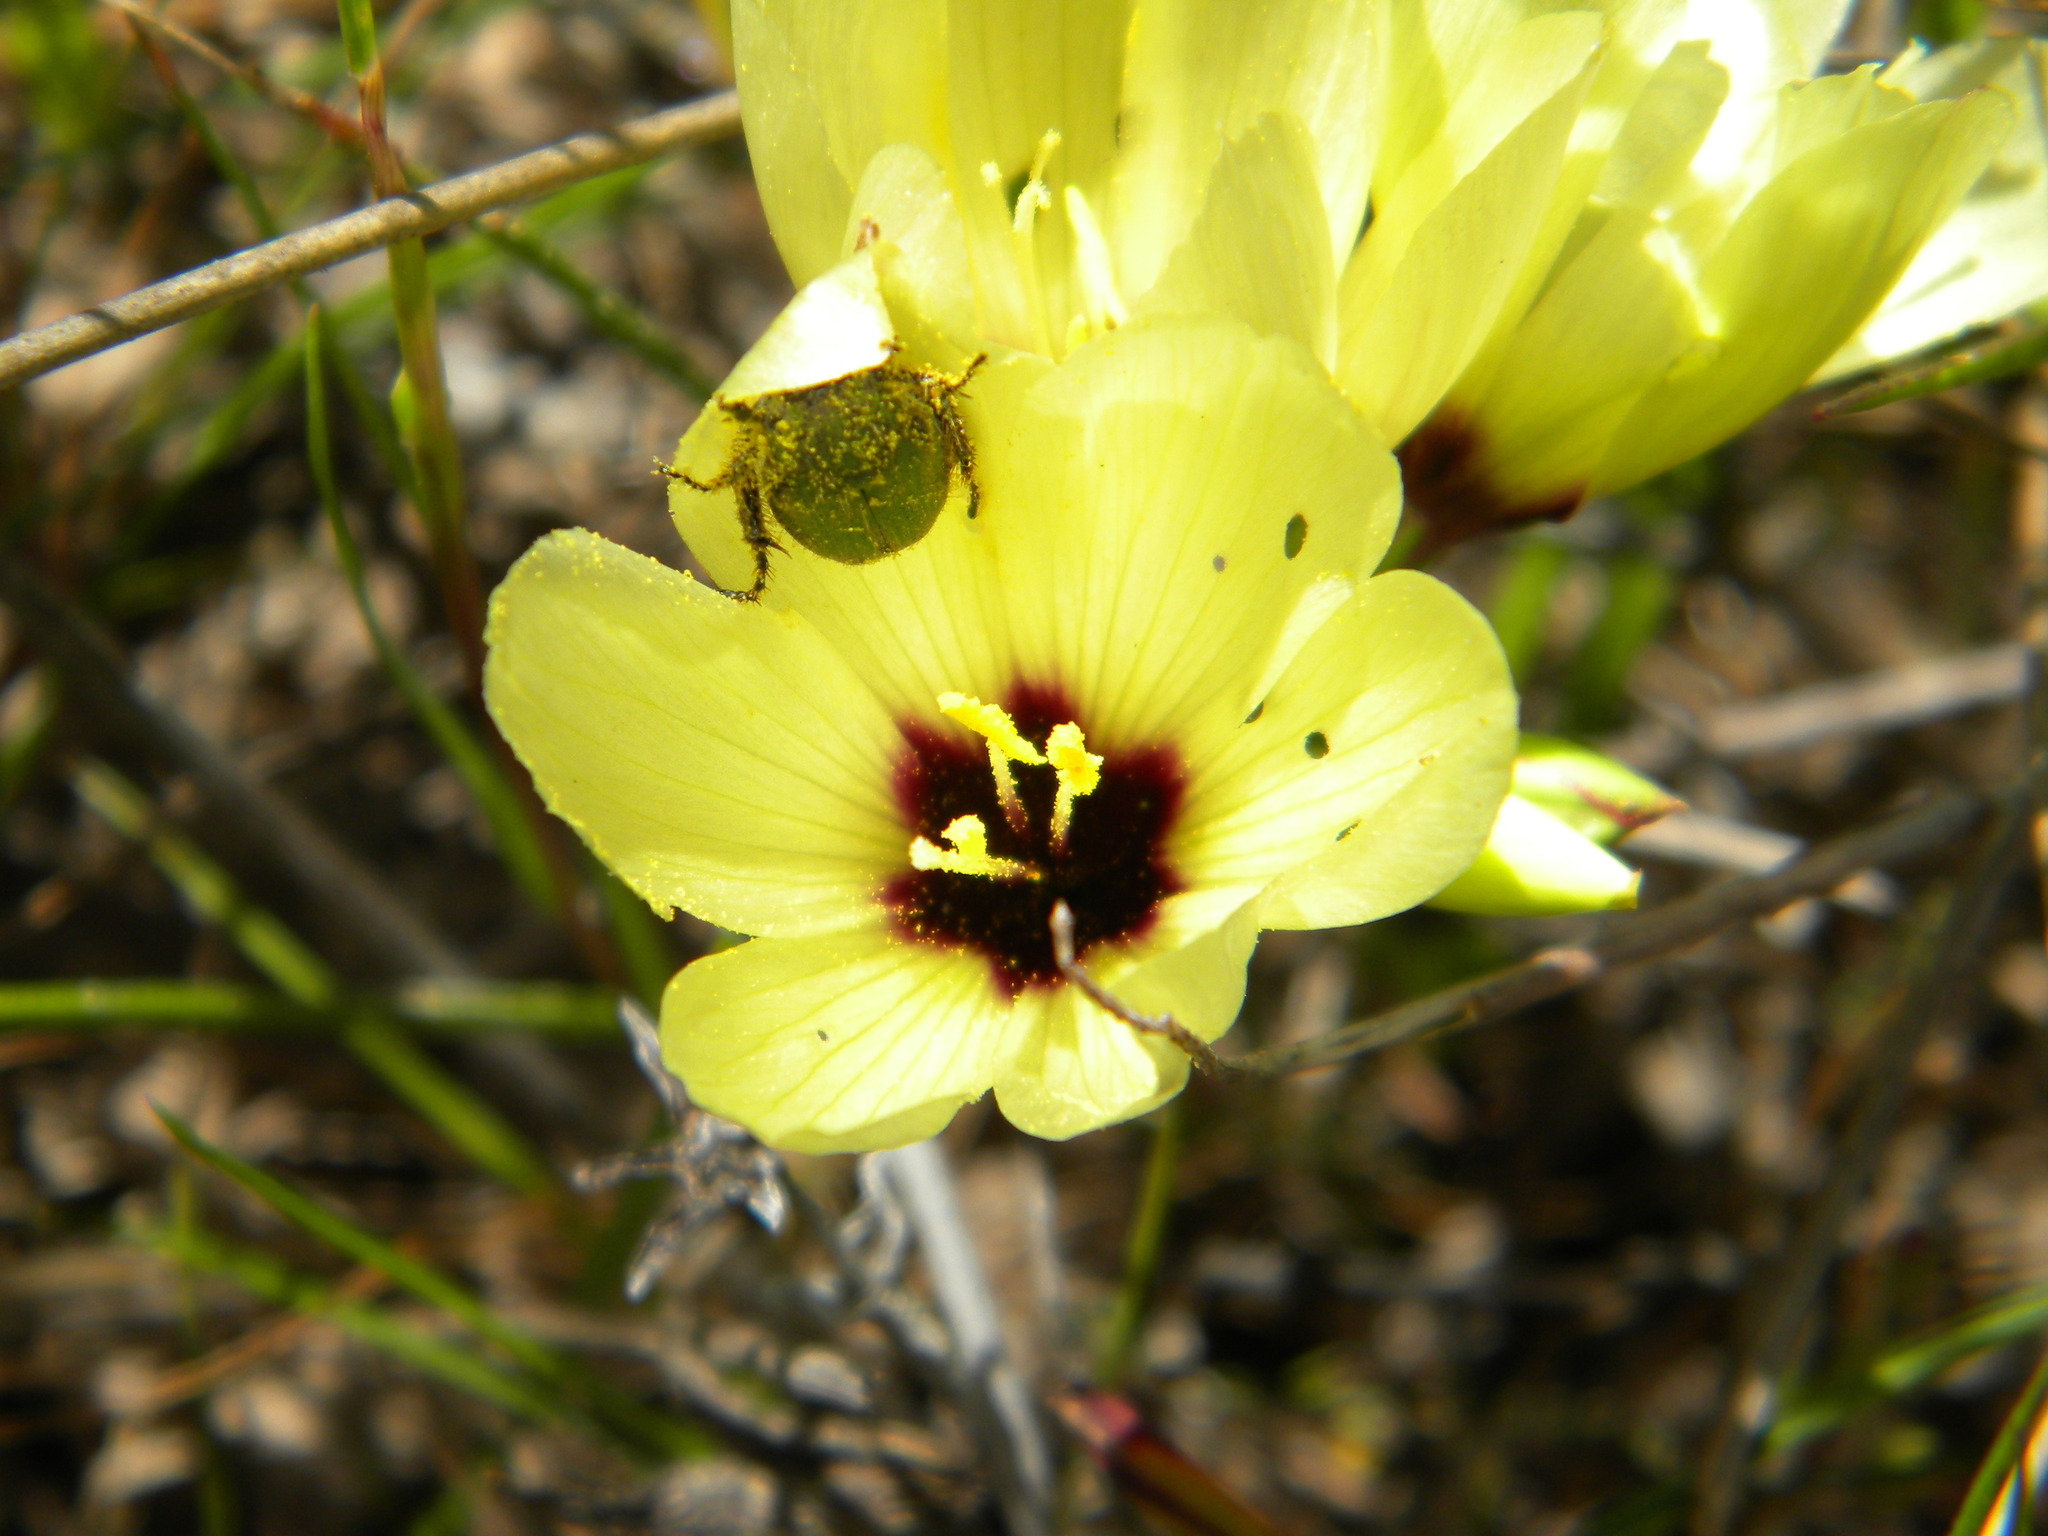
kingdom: Plantae
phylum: Tracheophyta
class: Liliopsida
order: Asparagales
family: Iridaceae
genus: Geissorhiza
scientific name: Geissorhiza darlingensis
